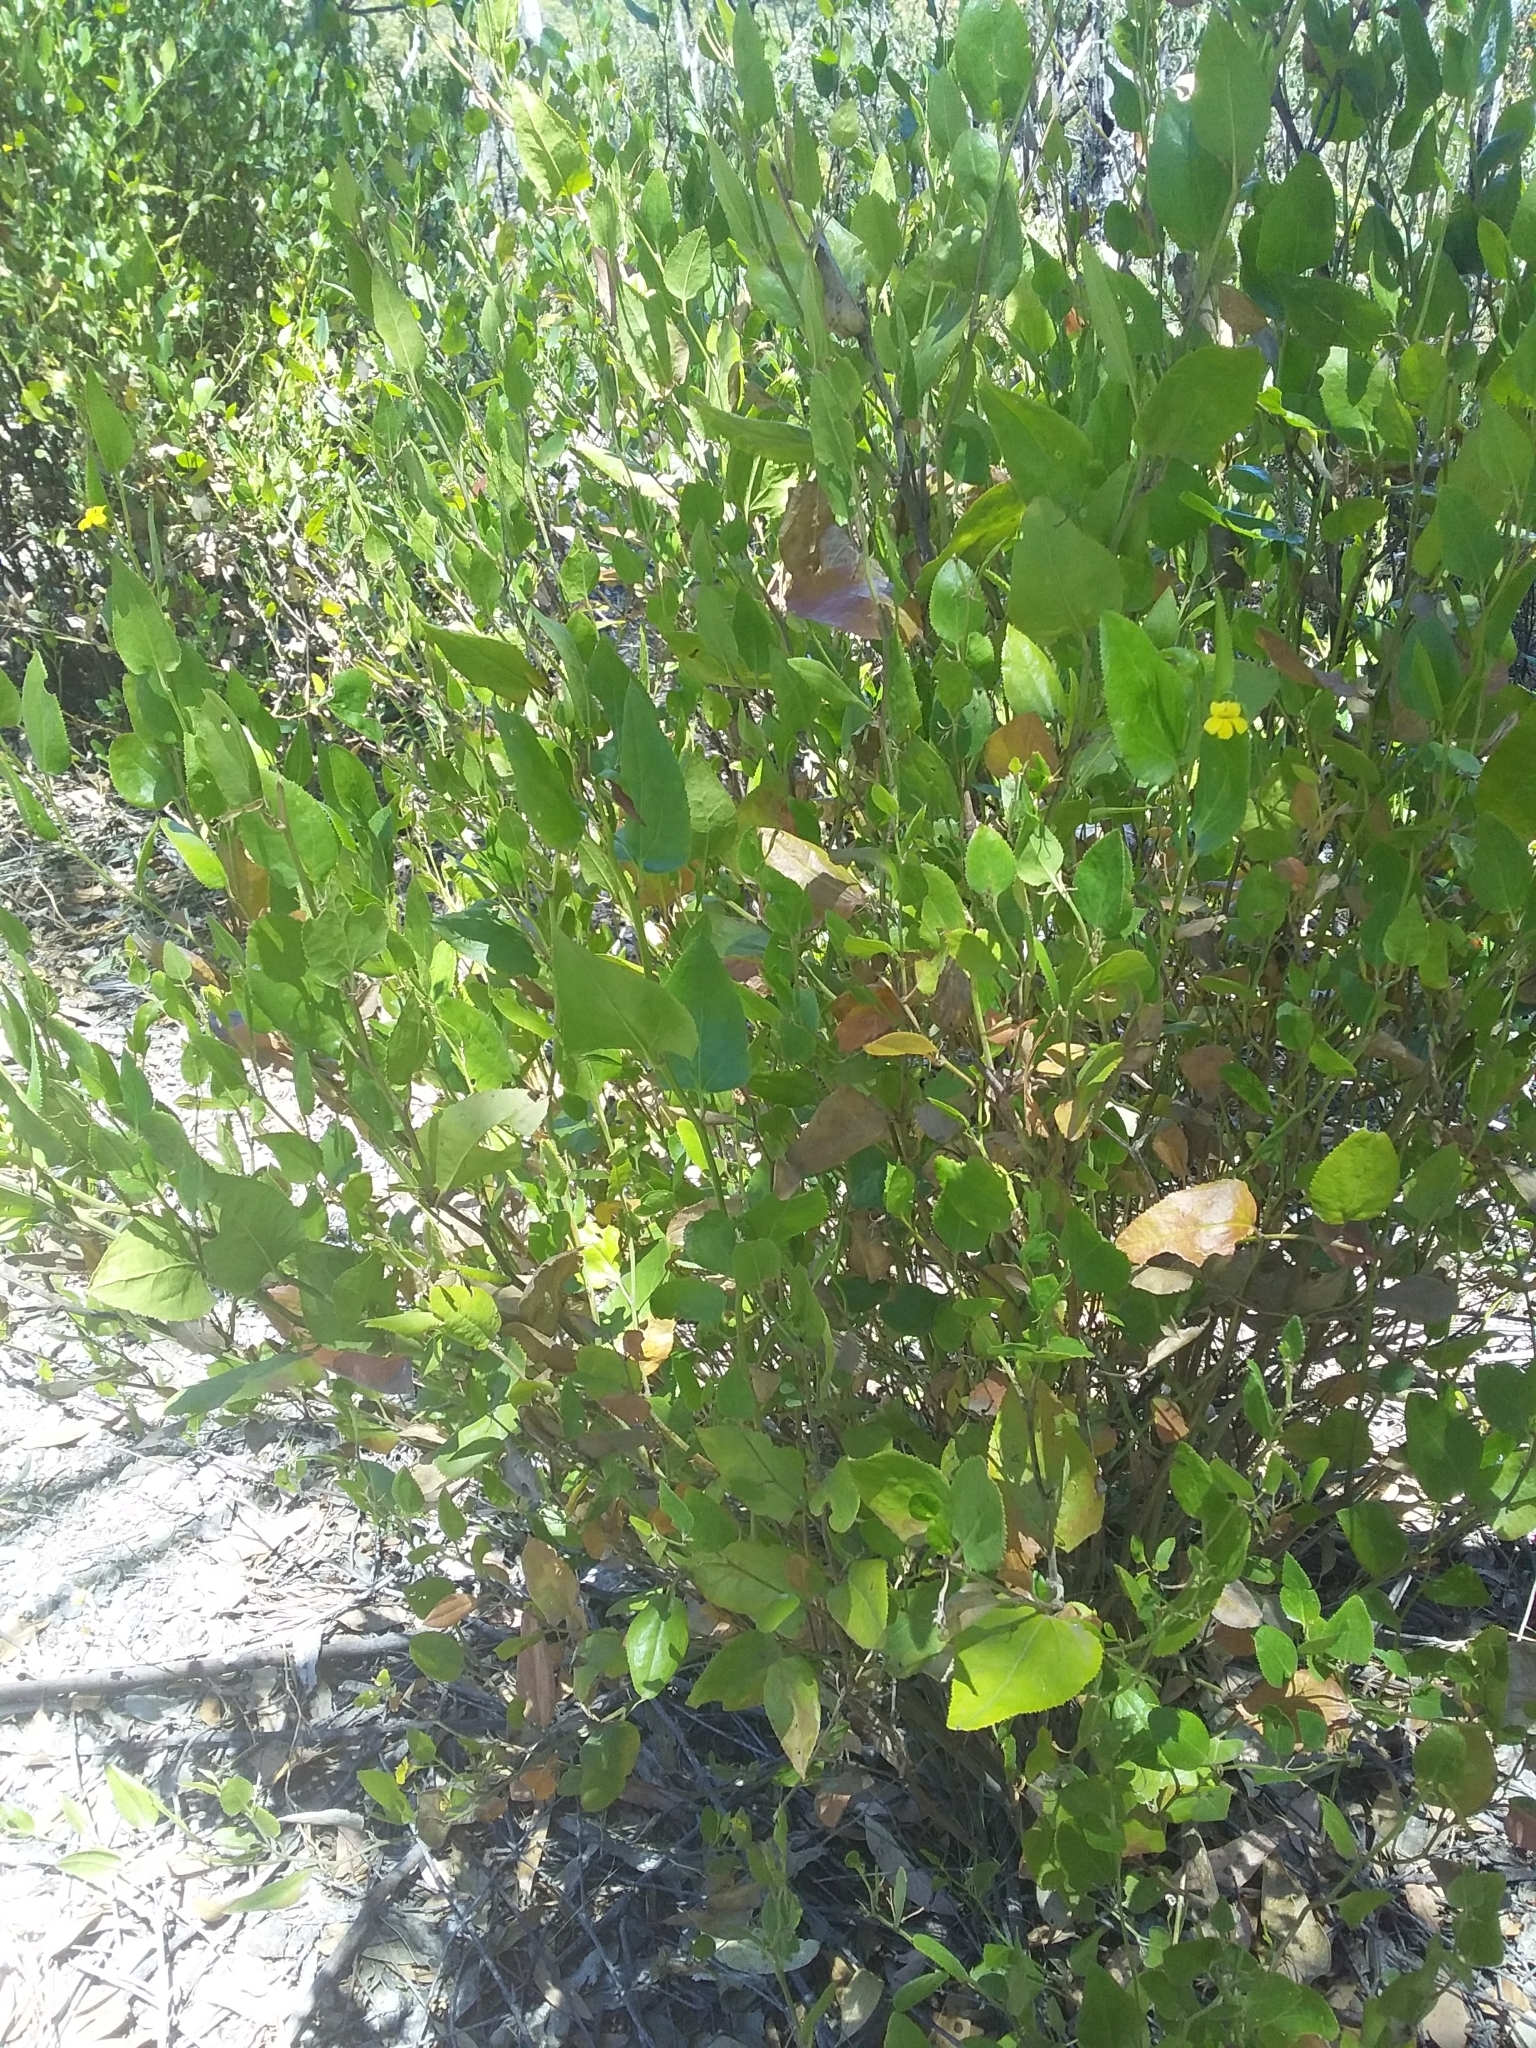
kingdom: Plantae
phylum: Tracheophyta
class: Magnoliopsida
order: Asterales
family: Goodeniaceae
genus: Goodenia
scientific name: Goodenia ovata
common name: Hop goodenia
